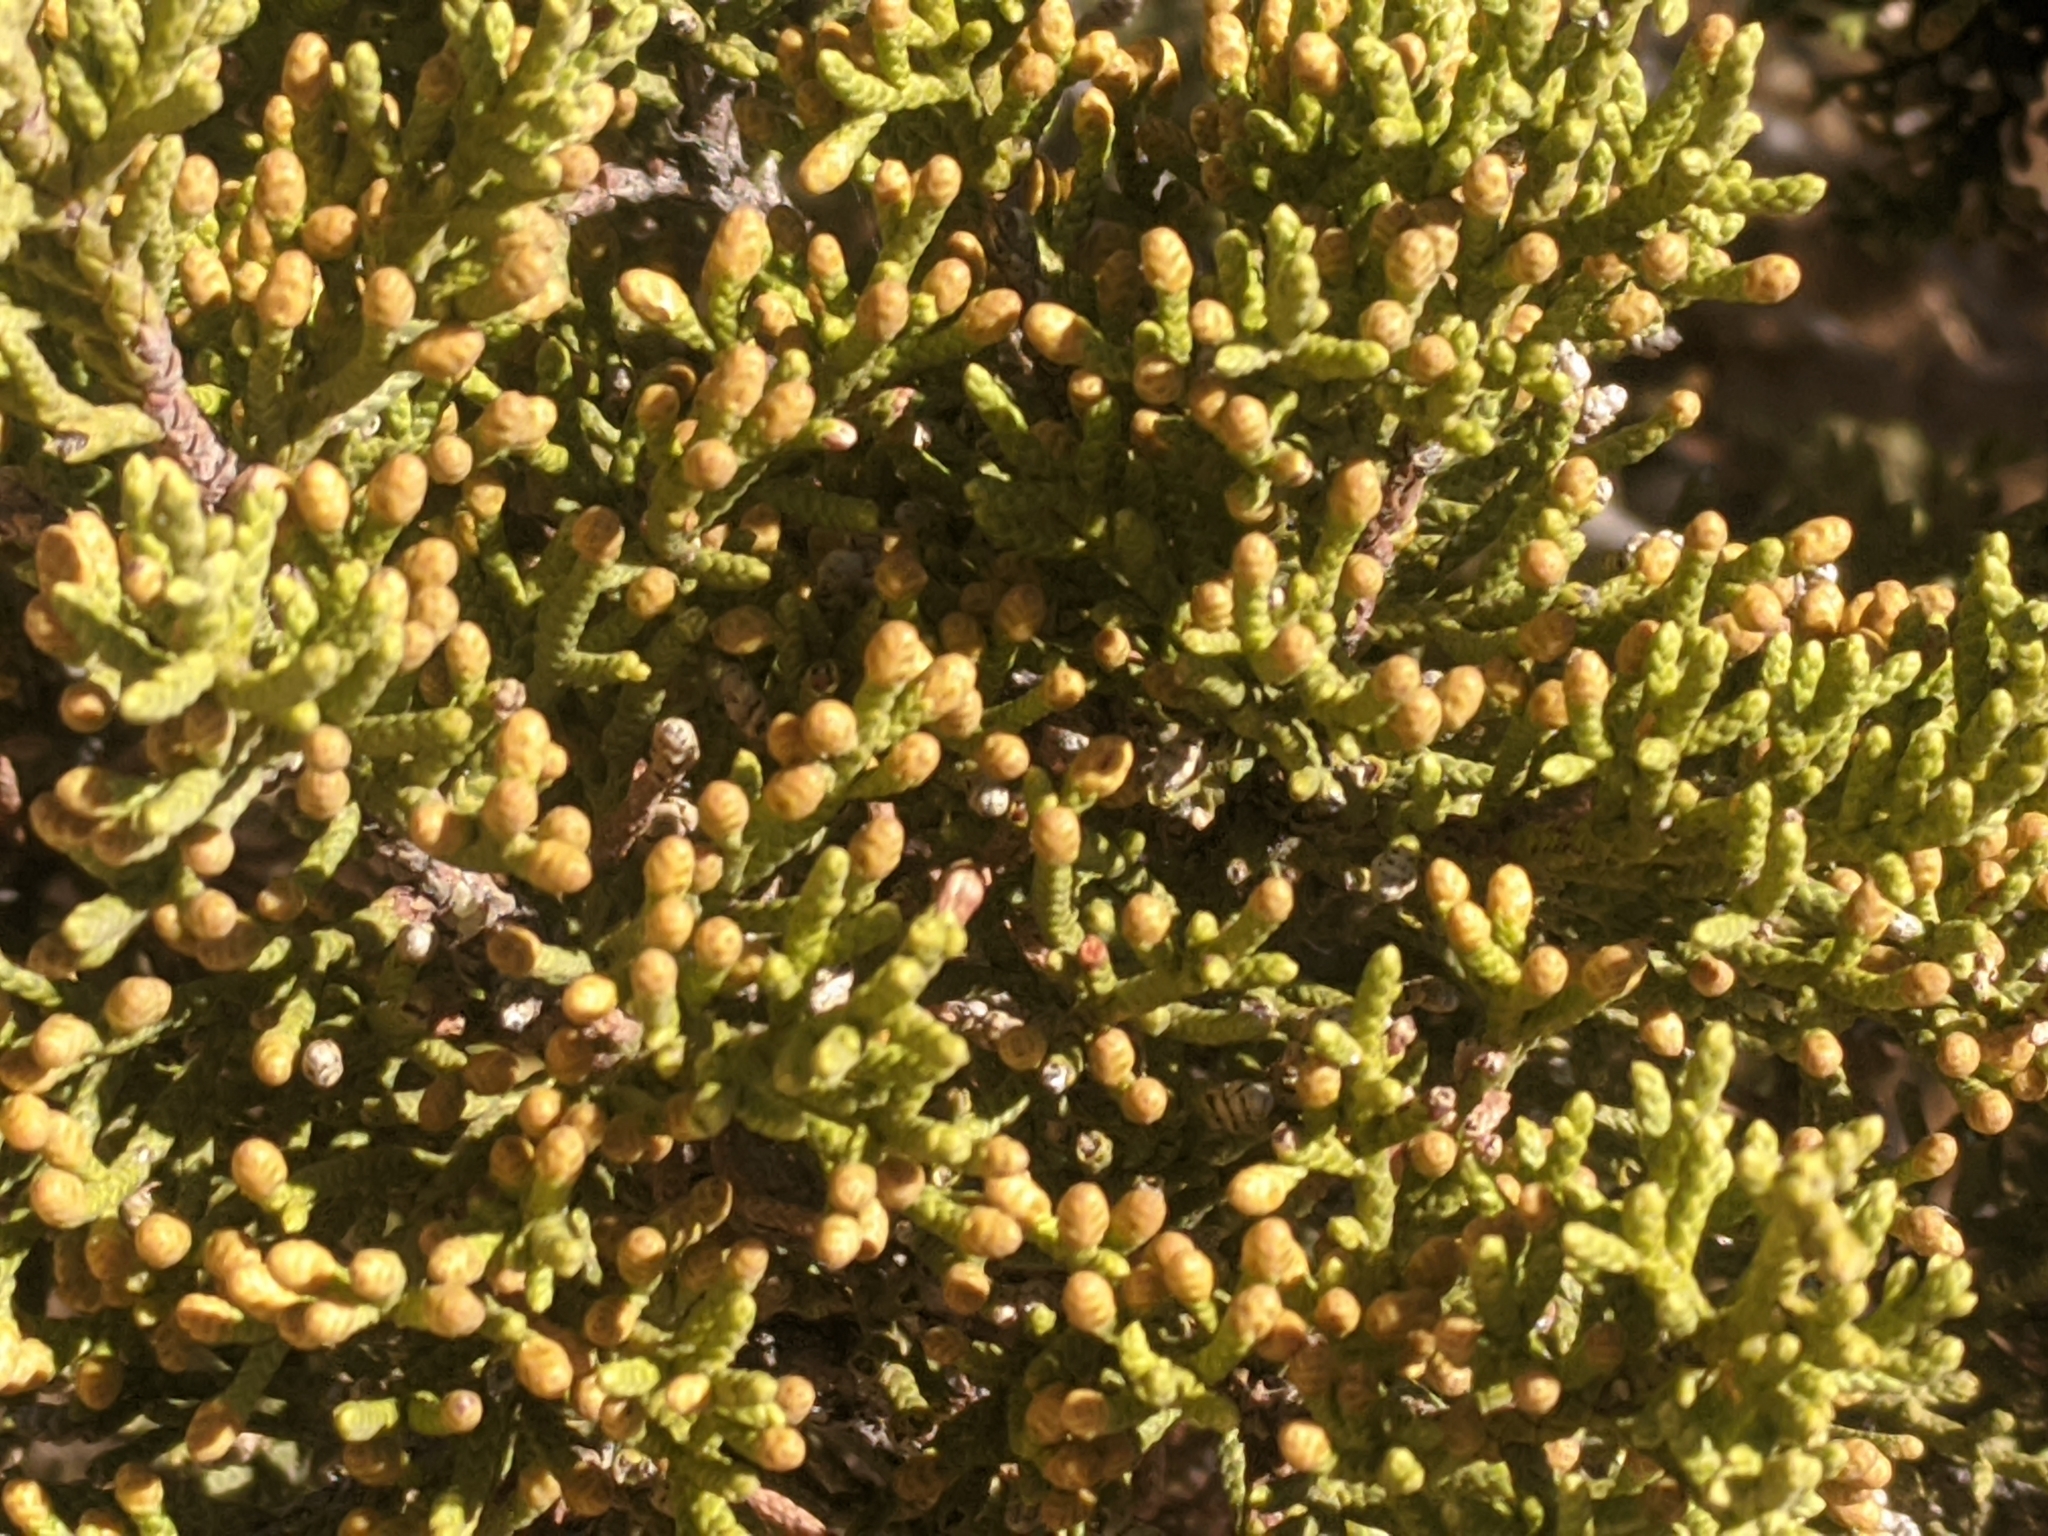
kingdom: Plantae
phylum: Tracheophyta
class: Pinopsida
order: Pinales
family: Cupressaceae
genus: Juniperus
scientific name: Juniperus californica
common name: California juniper
